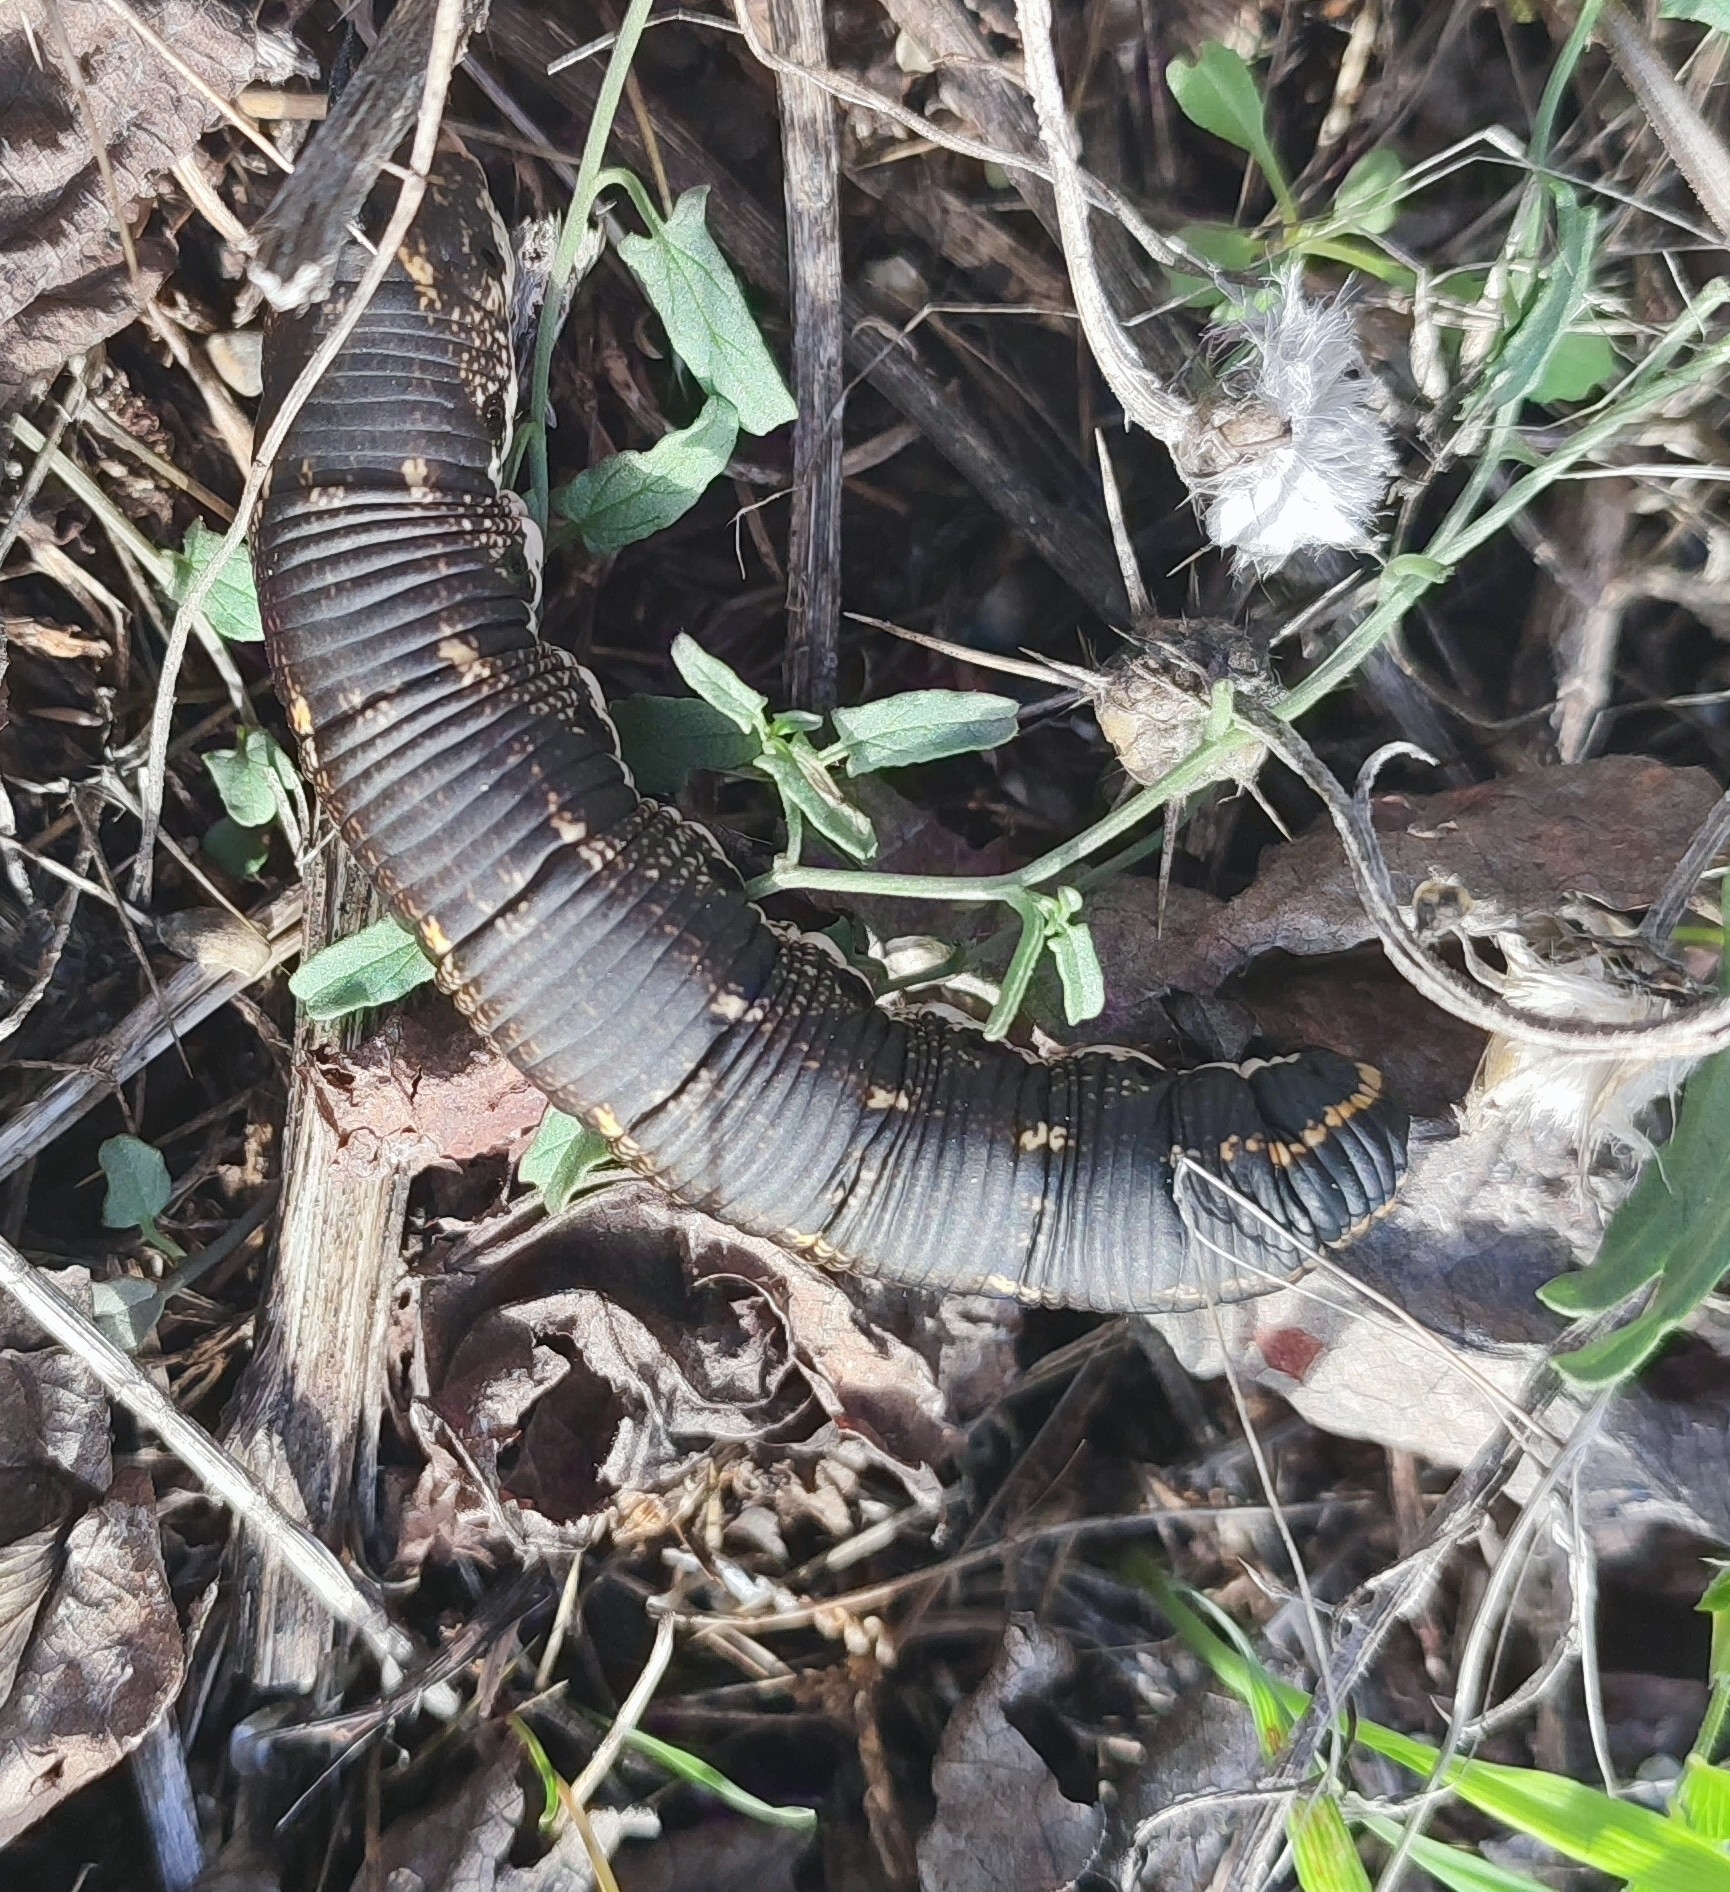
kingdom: Animalia
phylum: Arthropoda
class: Insecta
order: Lepidoptera
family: Sphingidae
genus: Agrius
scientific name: Agrius convolvuli
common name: Convolvulus hawkmoth
